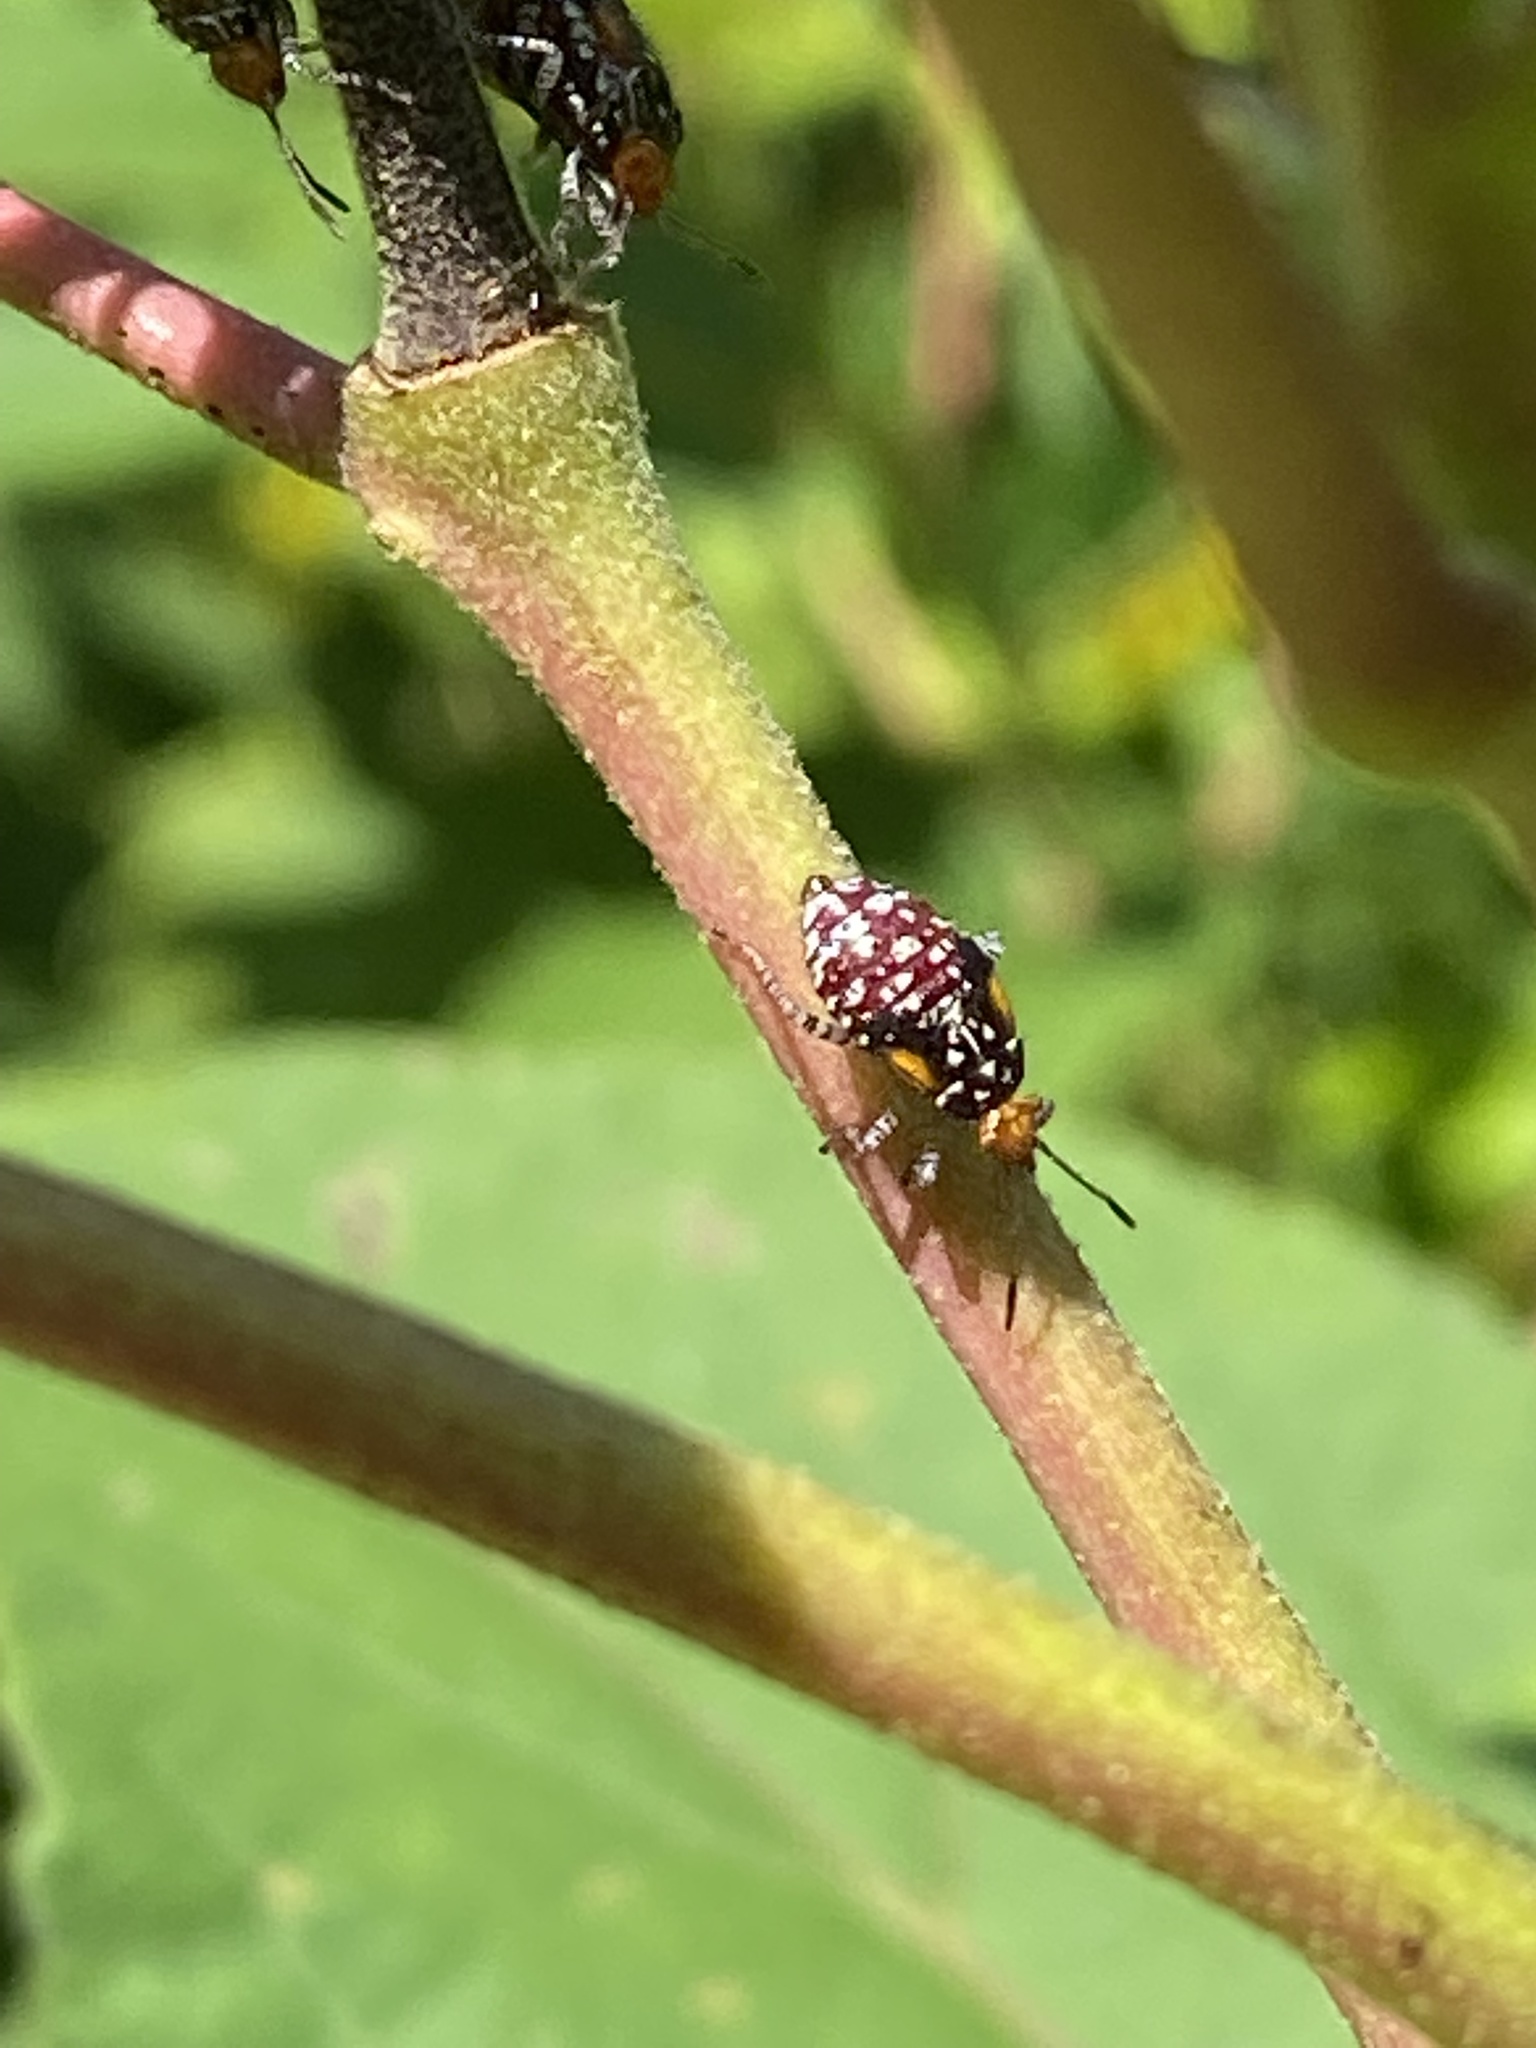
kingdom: Animalia
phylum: Arthropoda
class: Insecta
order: Hemiptera
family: Rhopalidae
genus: Niesthrea
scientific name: Niesthrea louisianica
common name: Scentless plant bug
